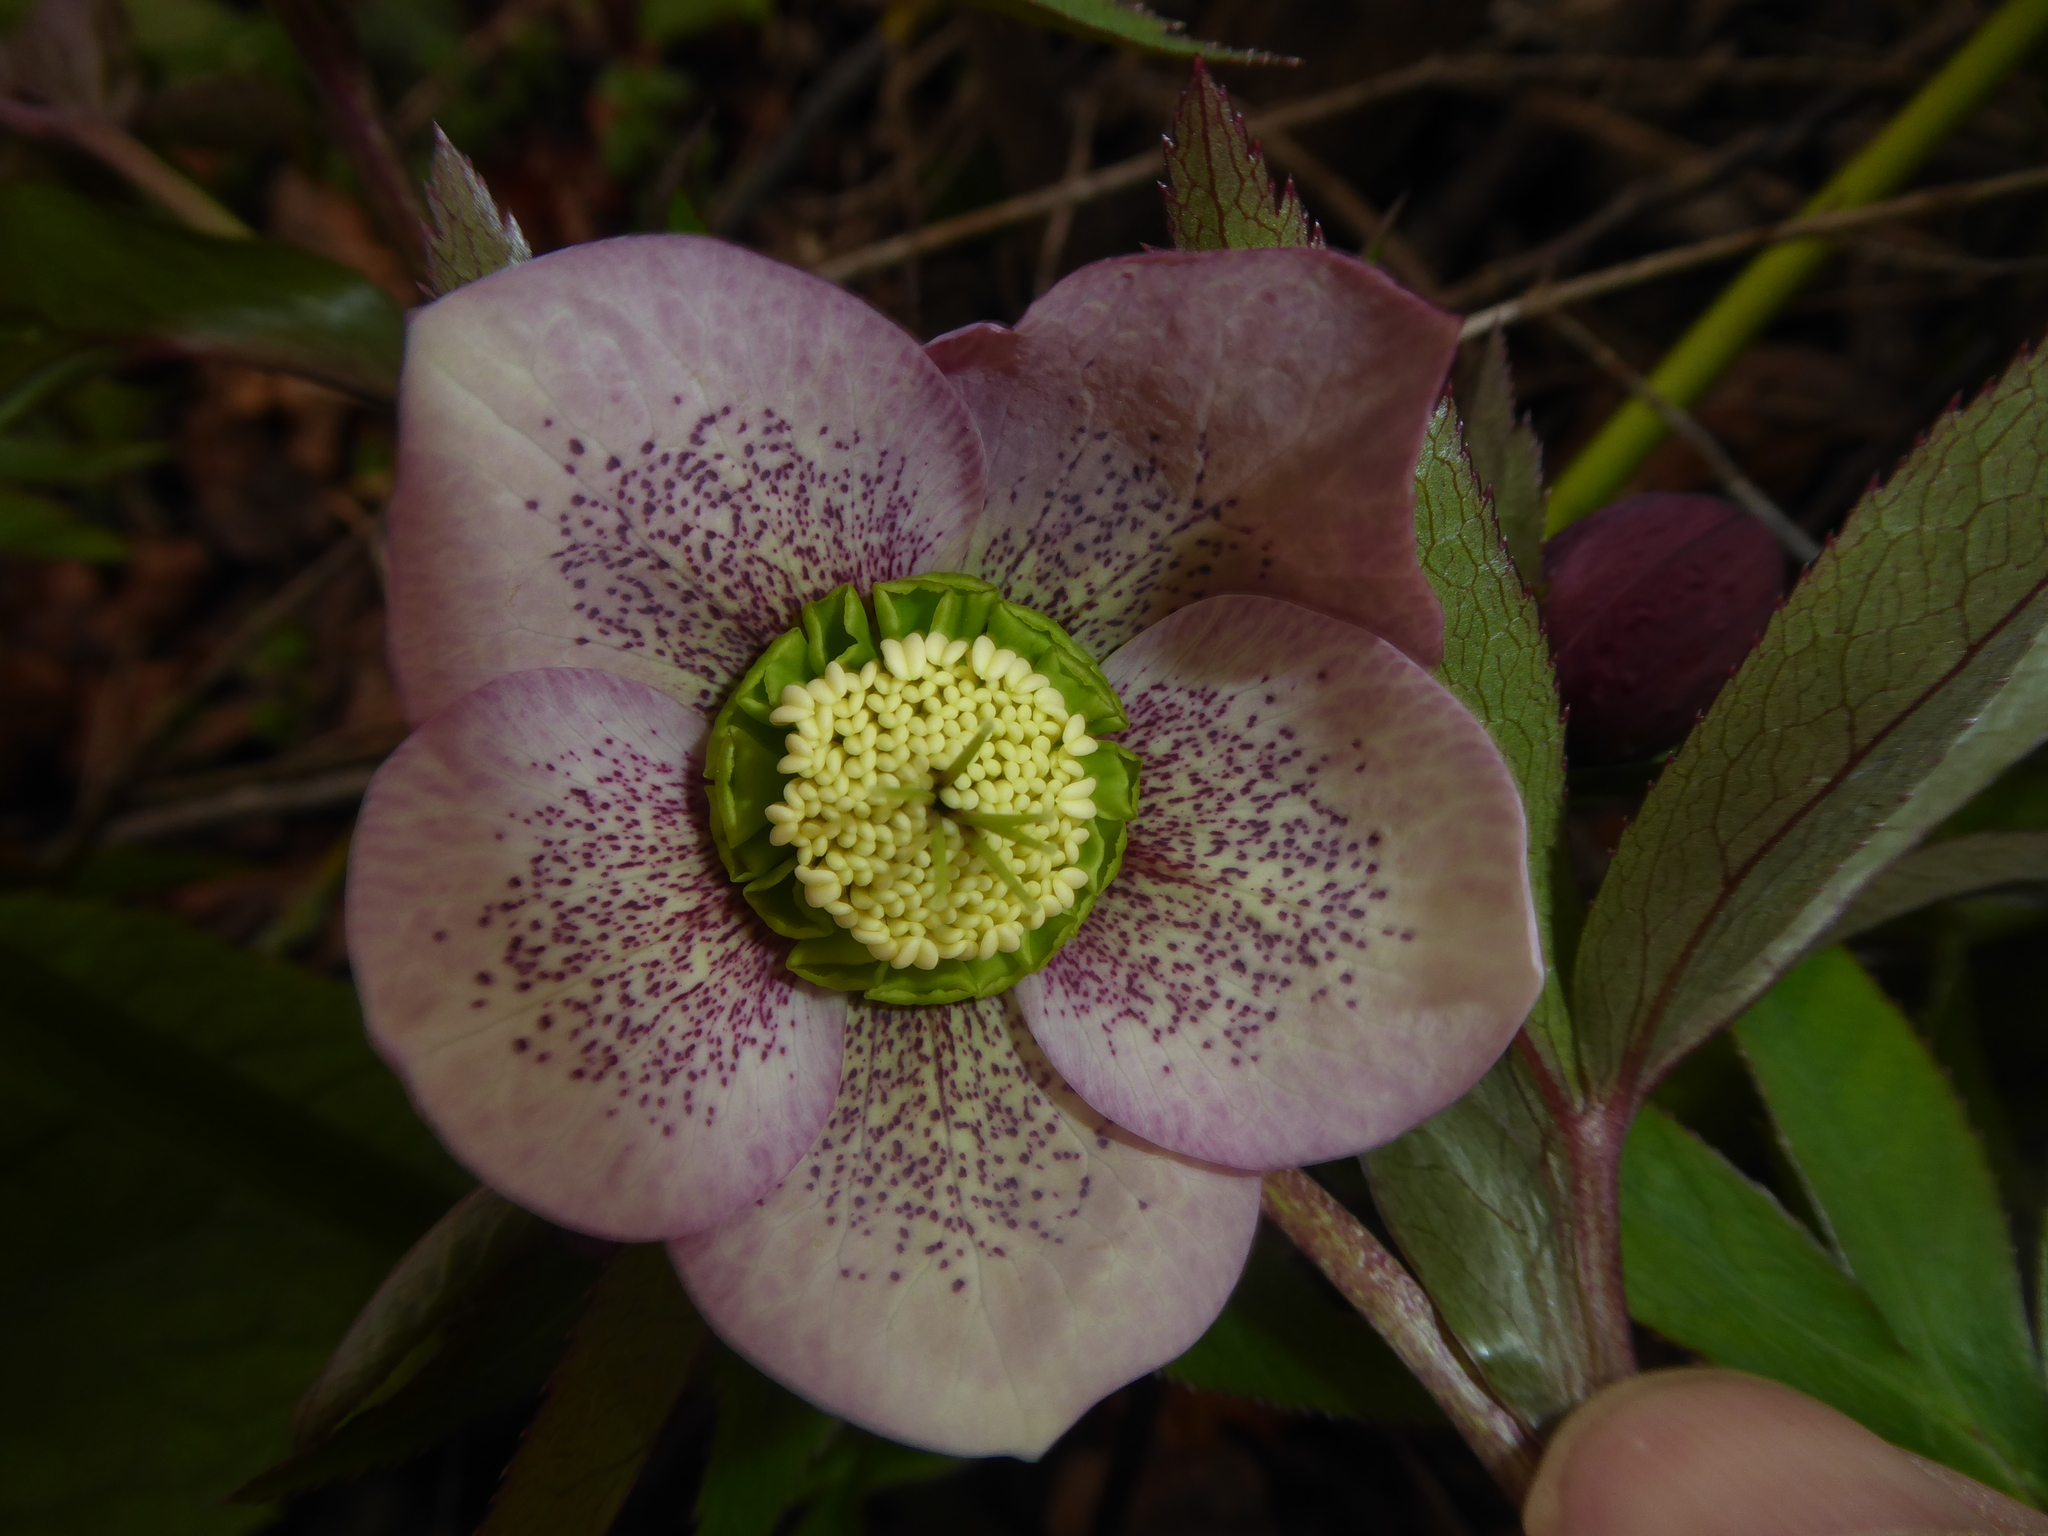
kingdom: Plantae
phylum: Tracheophyta
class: Magnoliopsida
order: Ranunculales
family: Ranunculaceae
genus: Helleborus
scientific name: Helleborus hybridus
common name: Hybrid lenten-rose
